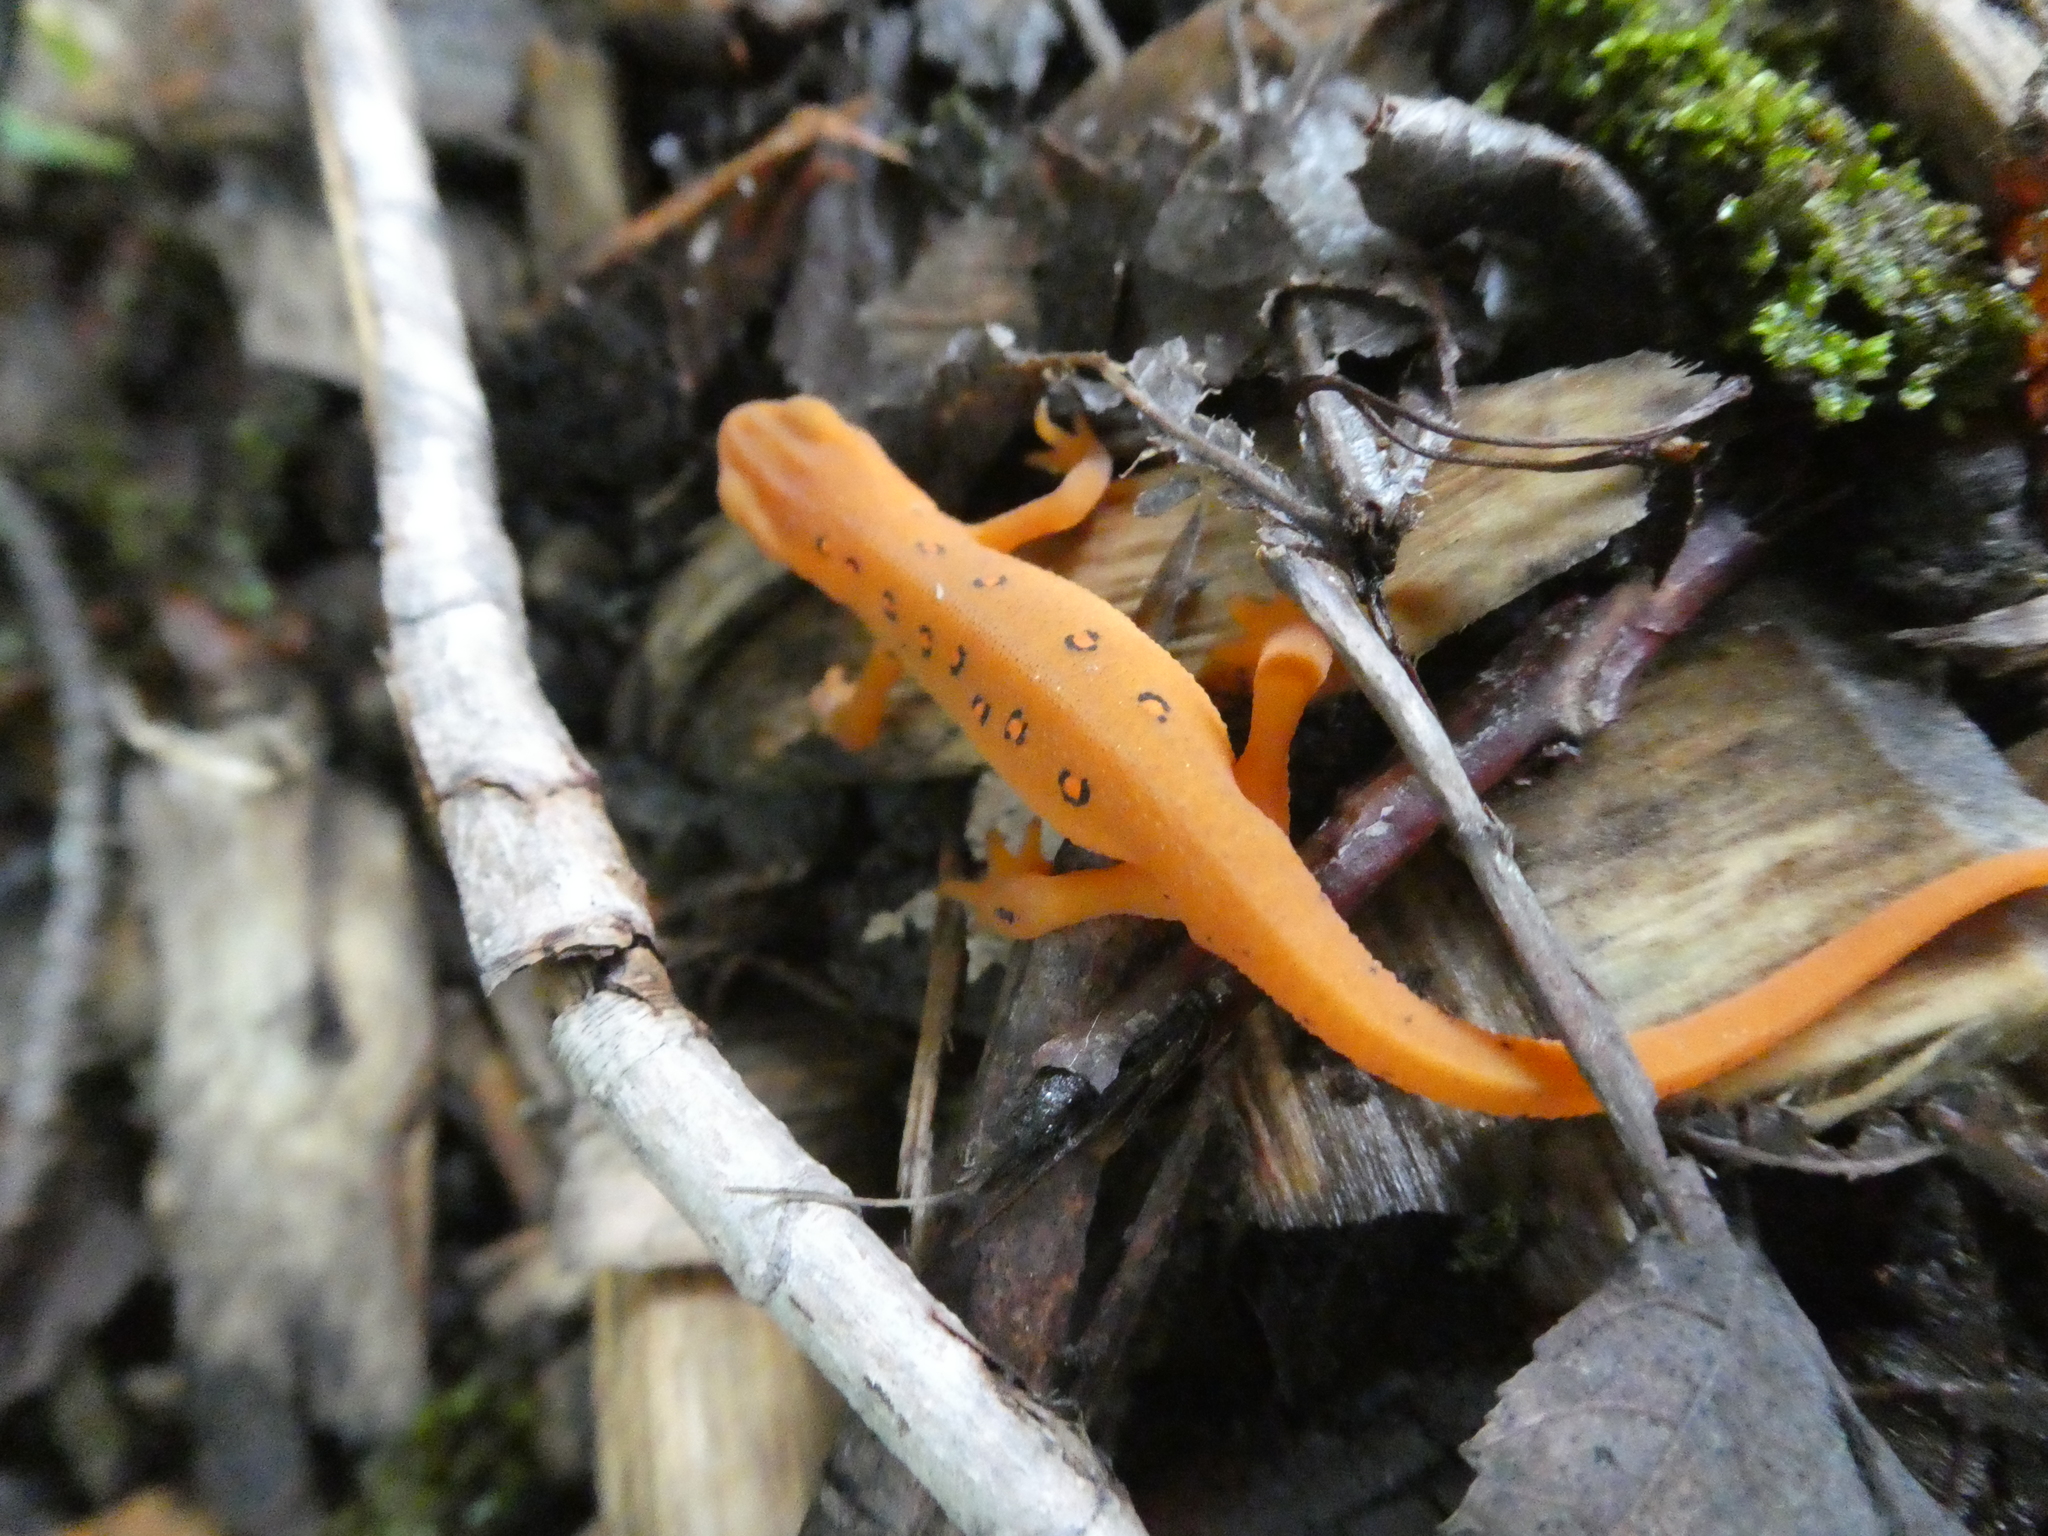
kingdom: Animalia
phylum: Chordata
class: Amphibia
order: Caudata
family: Salamandridae
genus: Notophthalmus
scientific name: Notophthalmus viridescens
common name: Eastern newt
